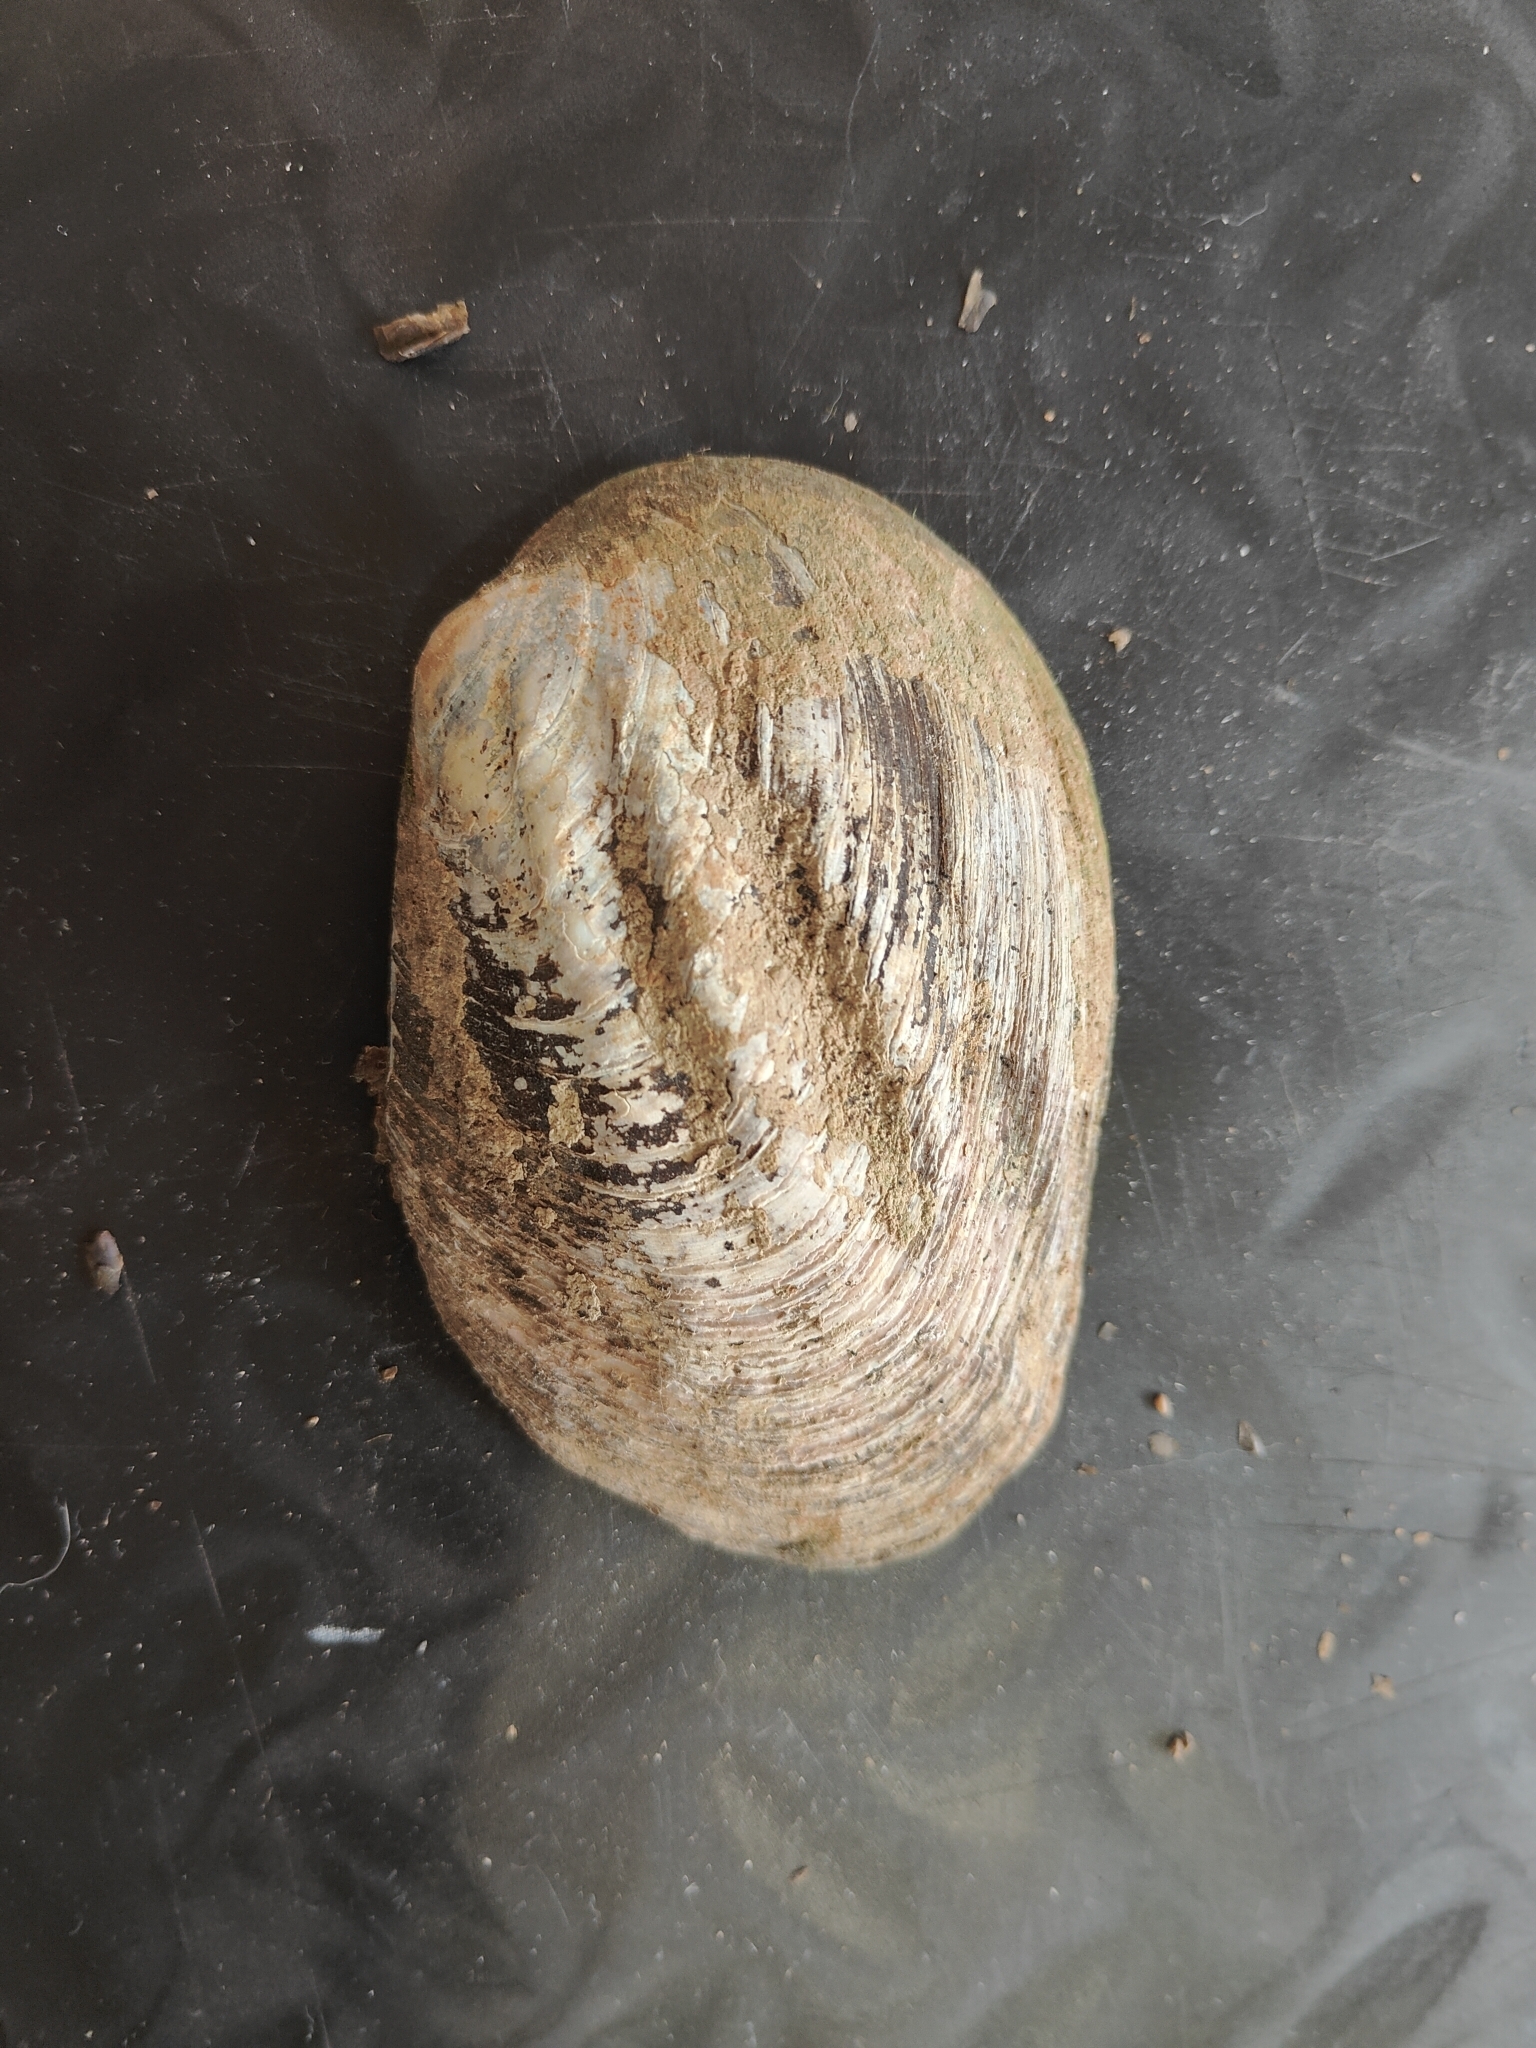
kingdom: Animalia
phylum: Mollusca
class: Bivalvia
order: Unionida
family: Unionidae
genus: Amblema
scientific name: Amblema plicata
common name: Threeridge
